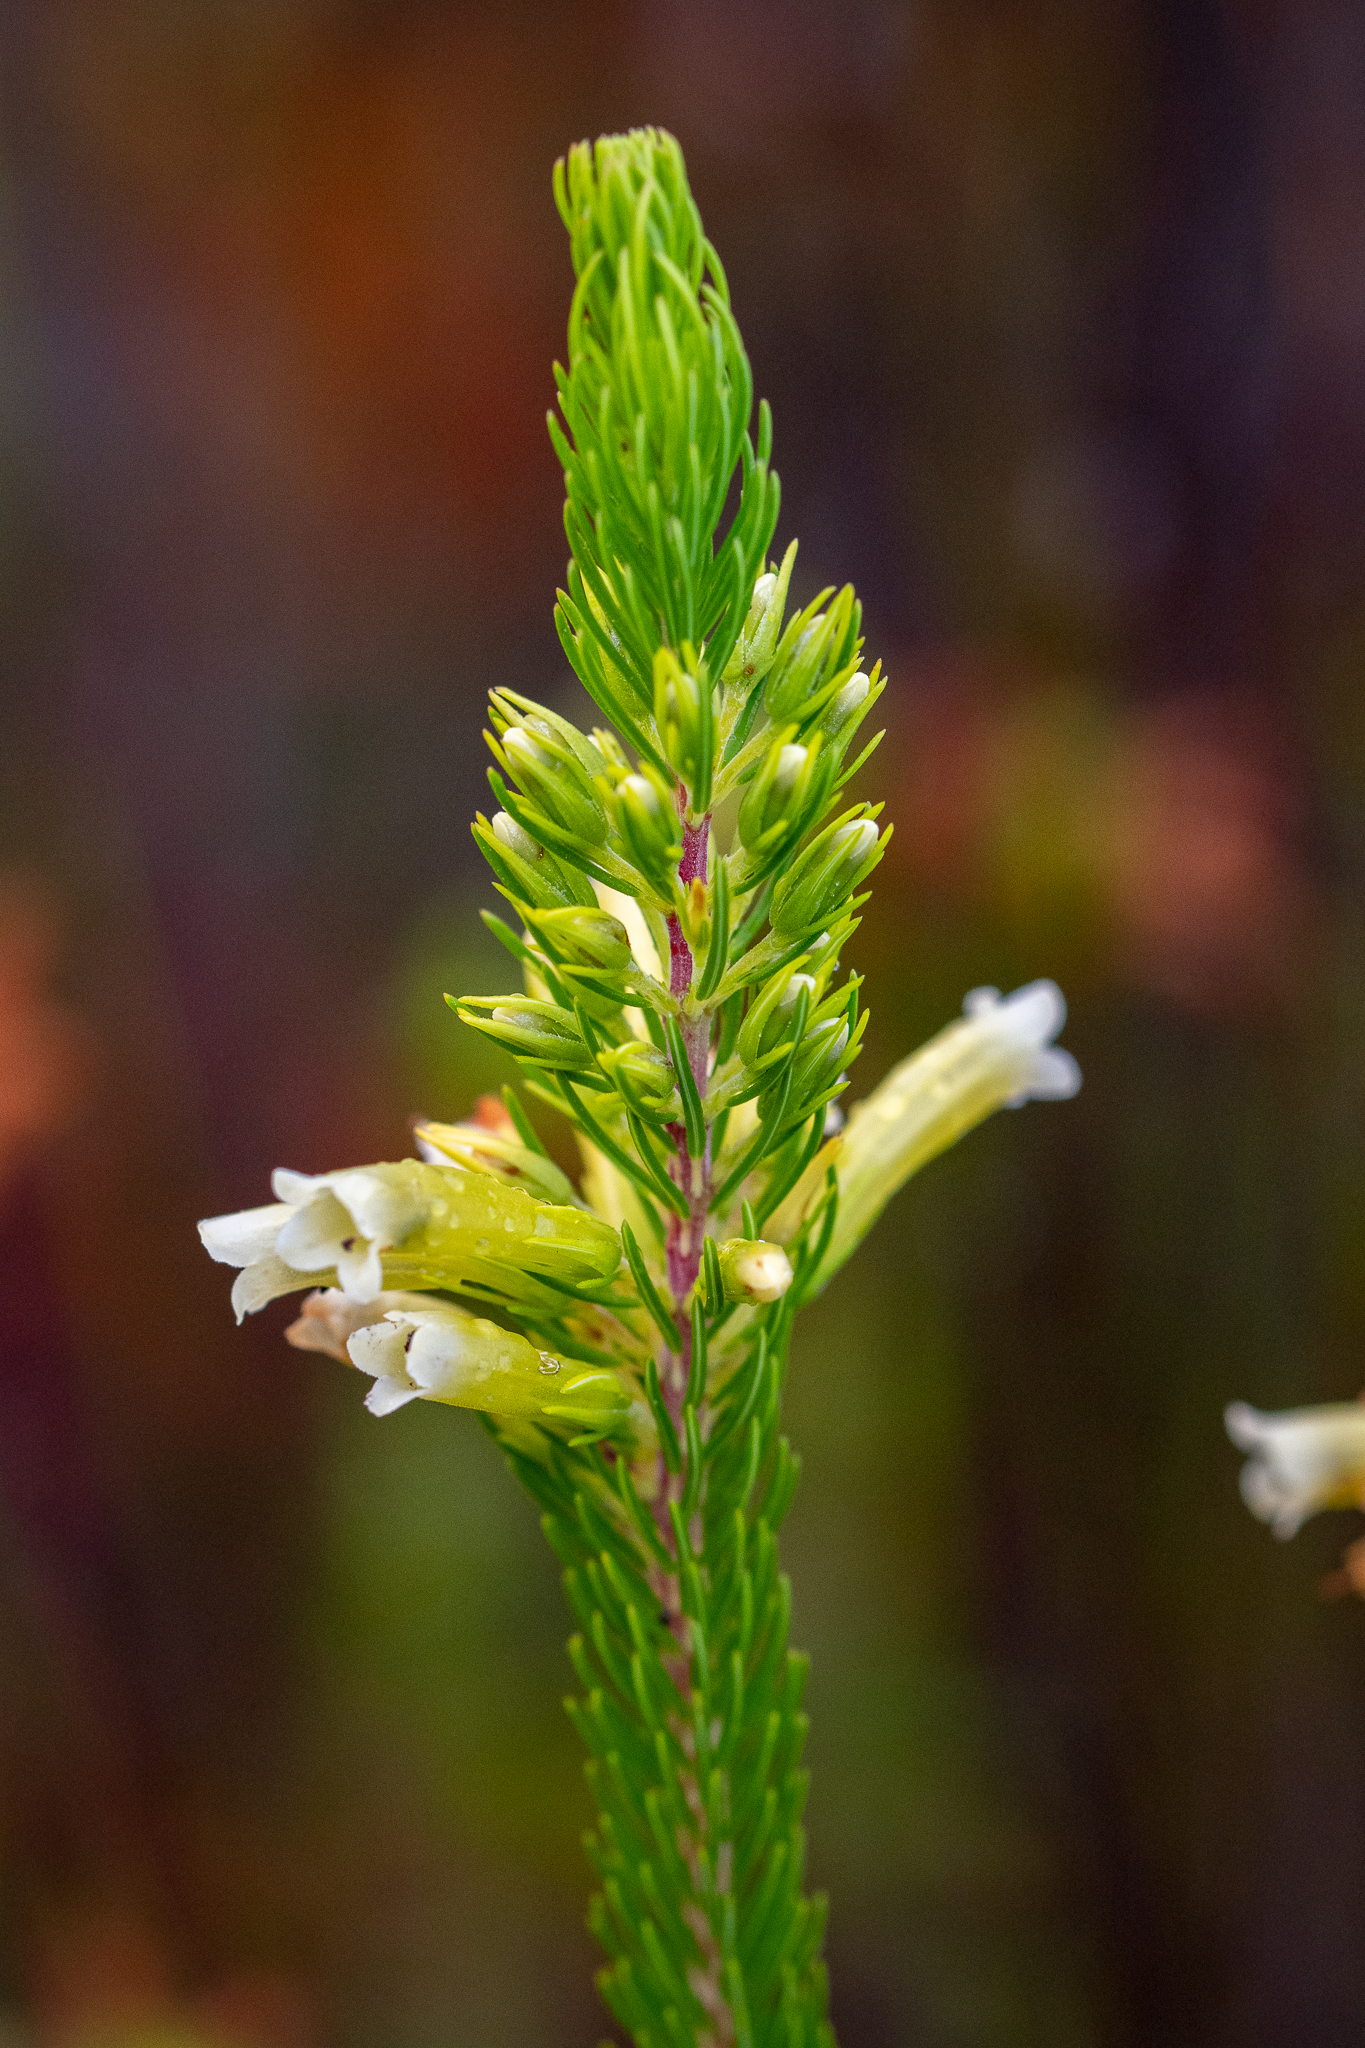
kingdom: Plantae
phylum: Tracheophyta
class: Magnoliopsida
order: Ericales
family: Ericaceae
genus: Erica
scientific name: Erica pinea
